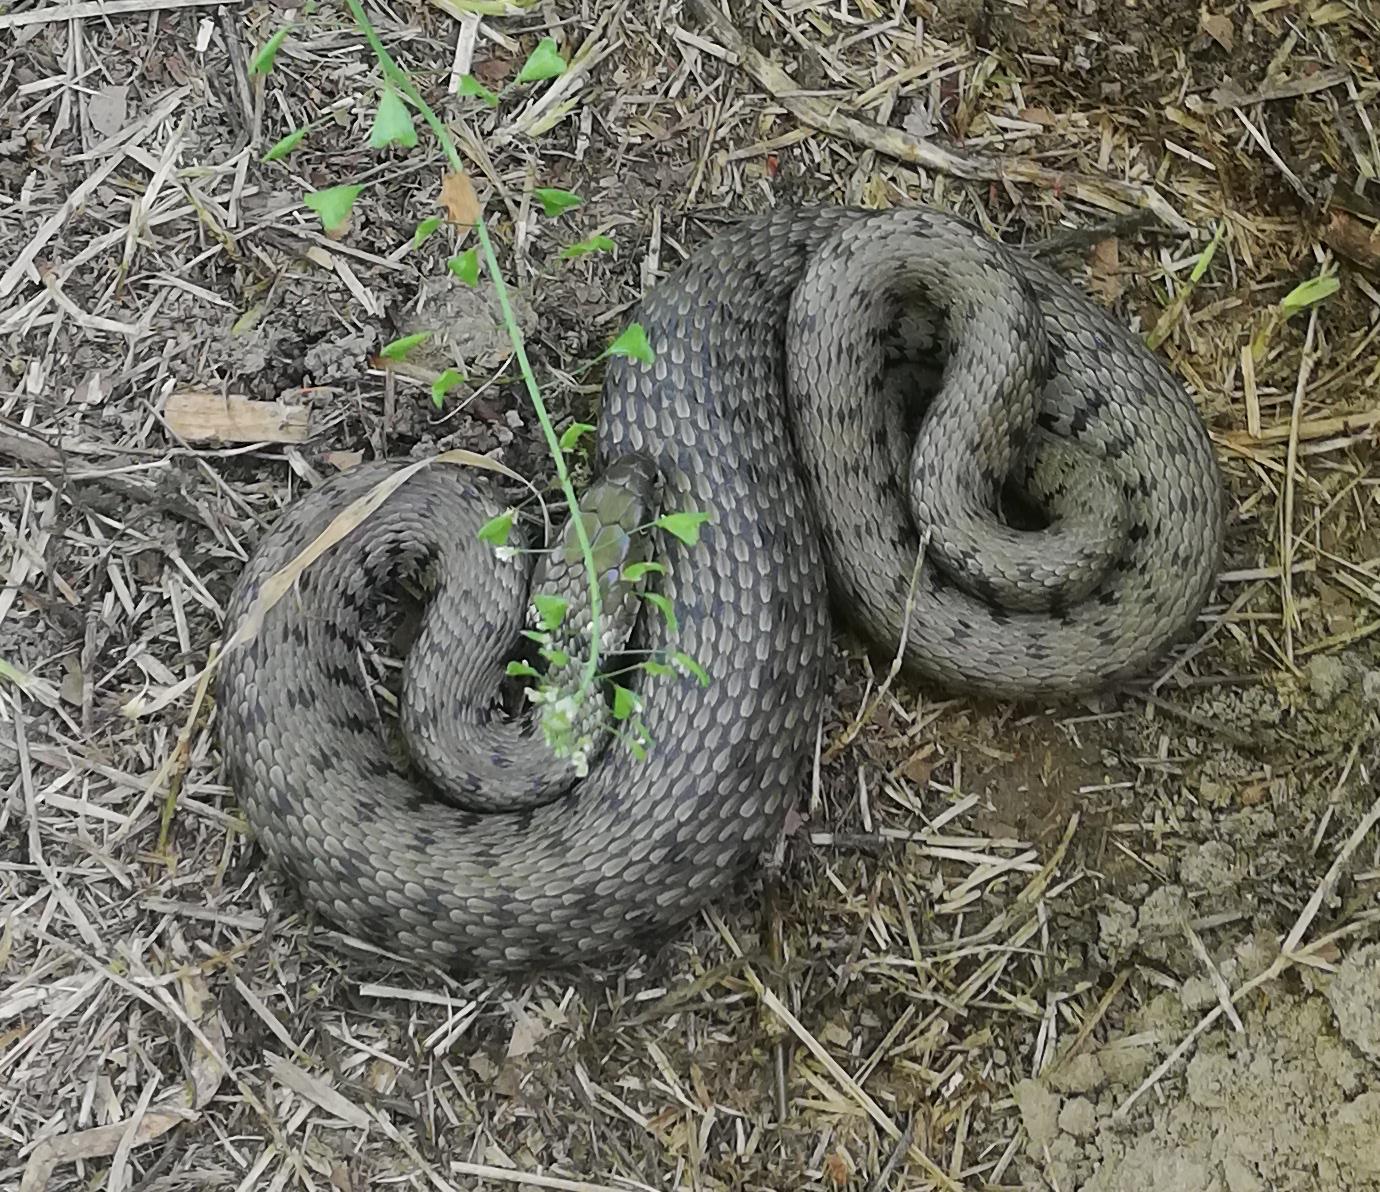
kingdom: Animalia
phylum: Chordata
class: Squamata
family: Colubridae
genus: Natrix
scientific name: Natrix helvetica
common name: Banded grass snake
